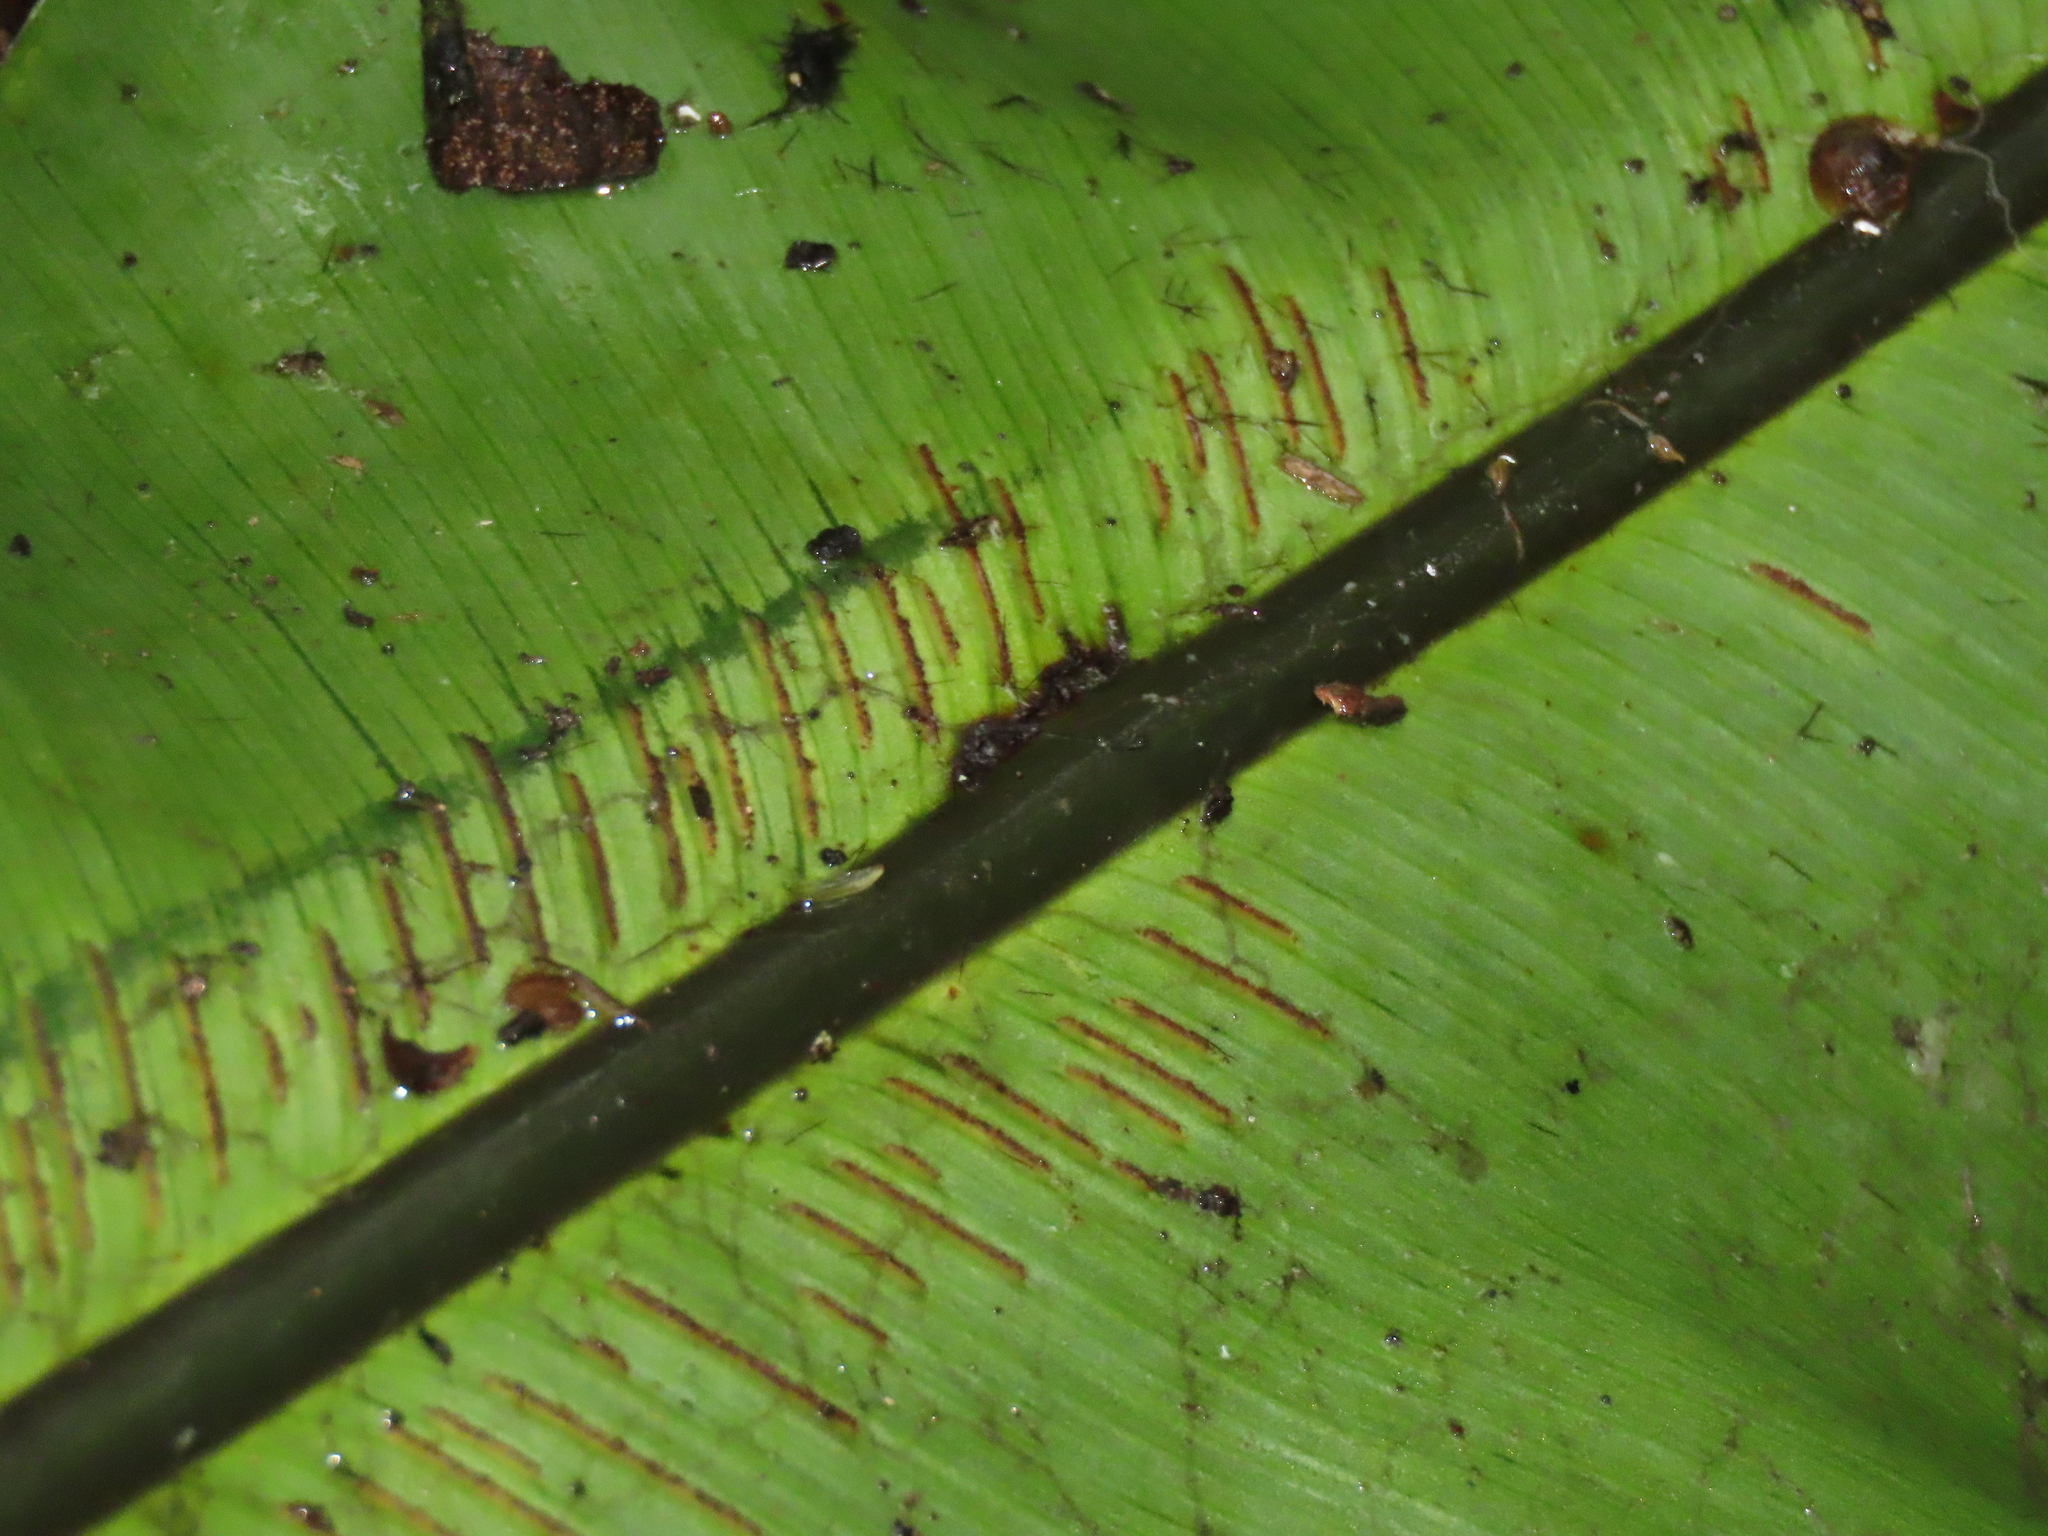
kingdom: Plantae
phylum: Tracheophyta
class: Polypodiopsida
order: Polypodiales
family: Aspleniaceae
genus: Asplenium
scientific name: Asplenium nidus
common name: Bird's-nest fern
